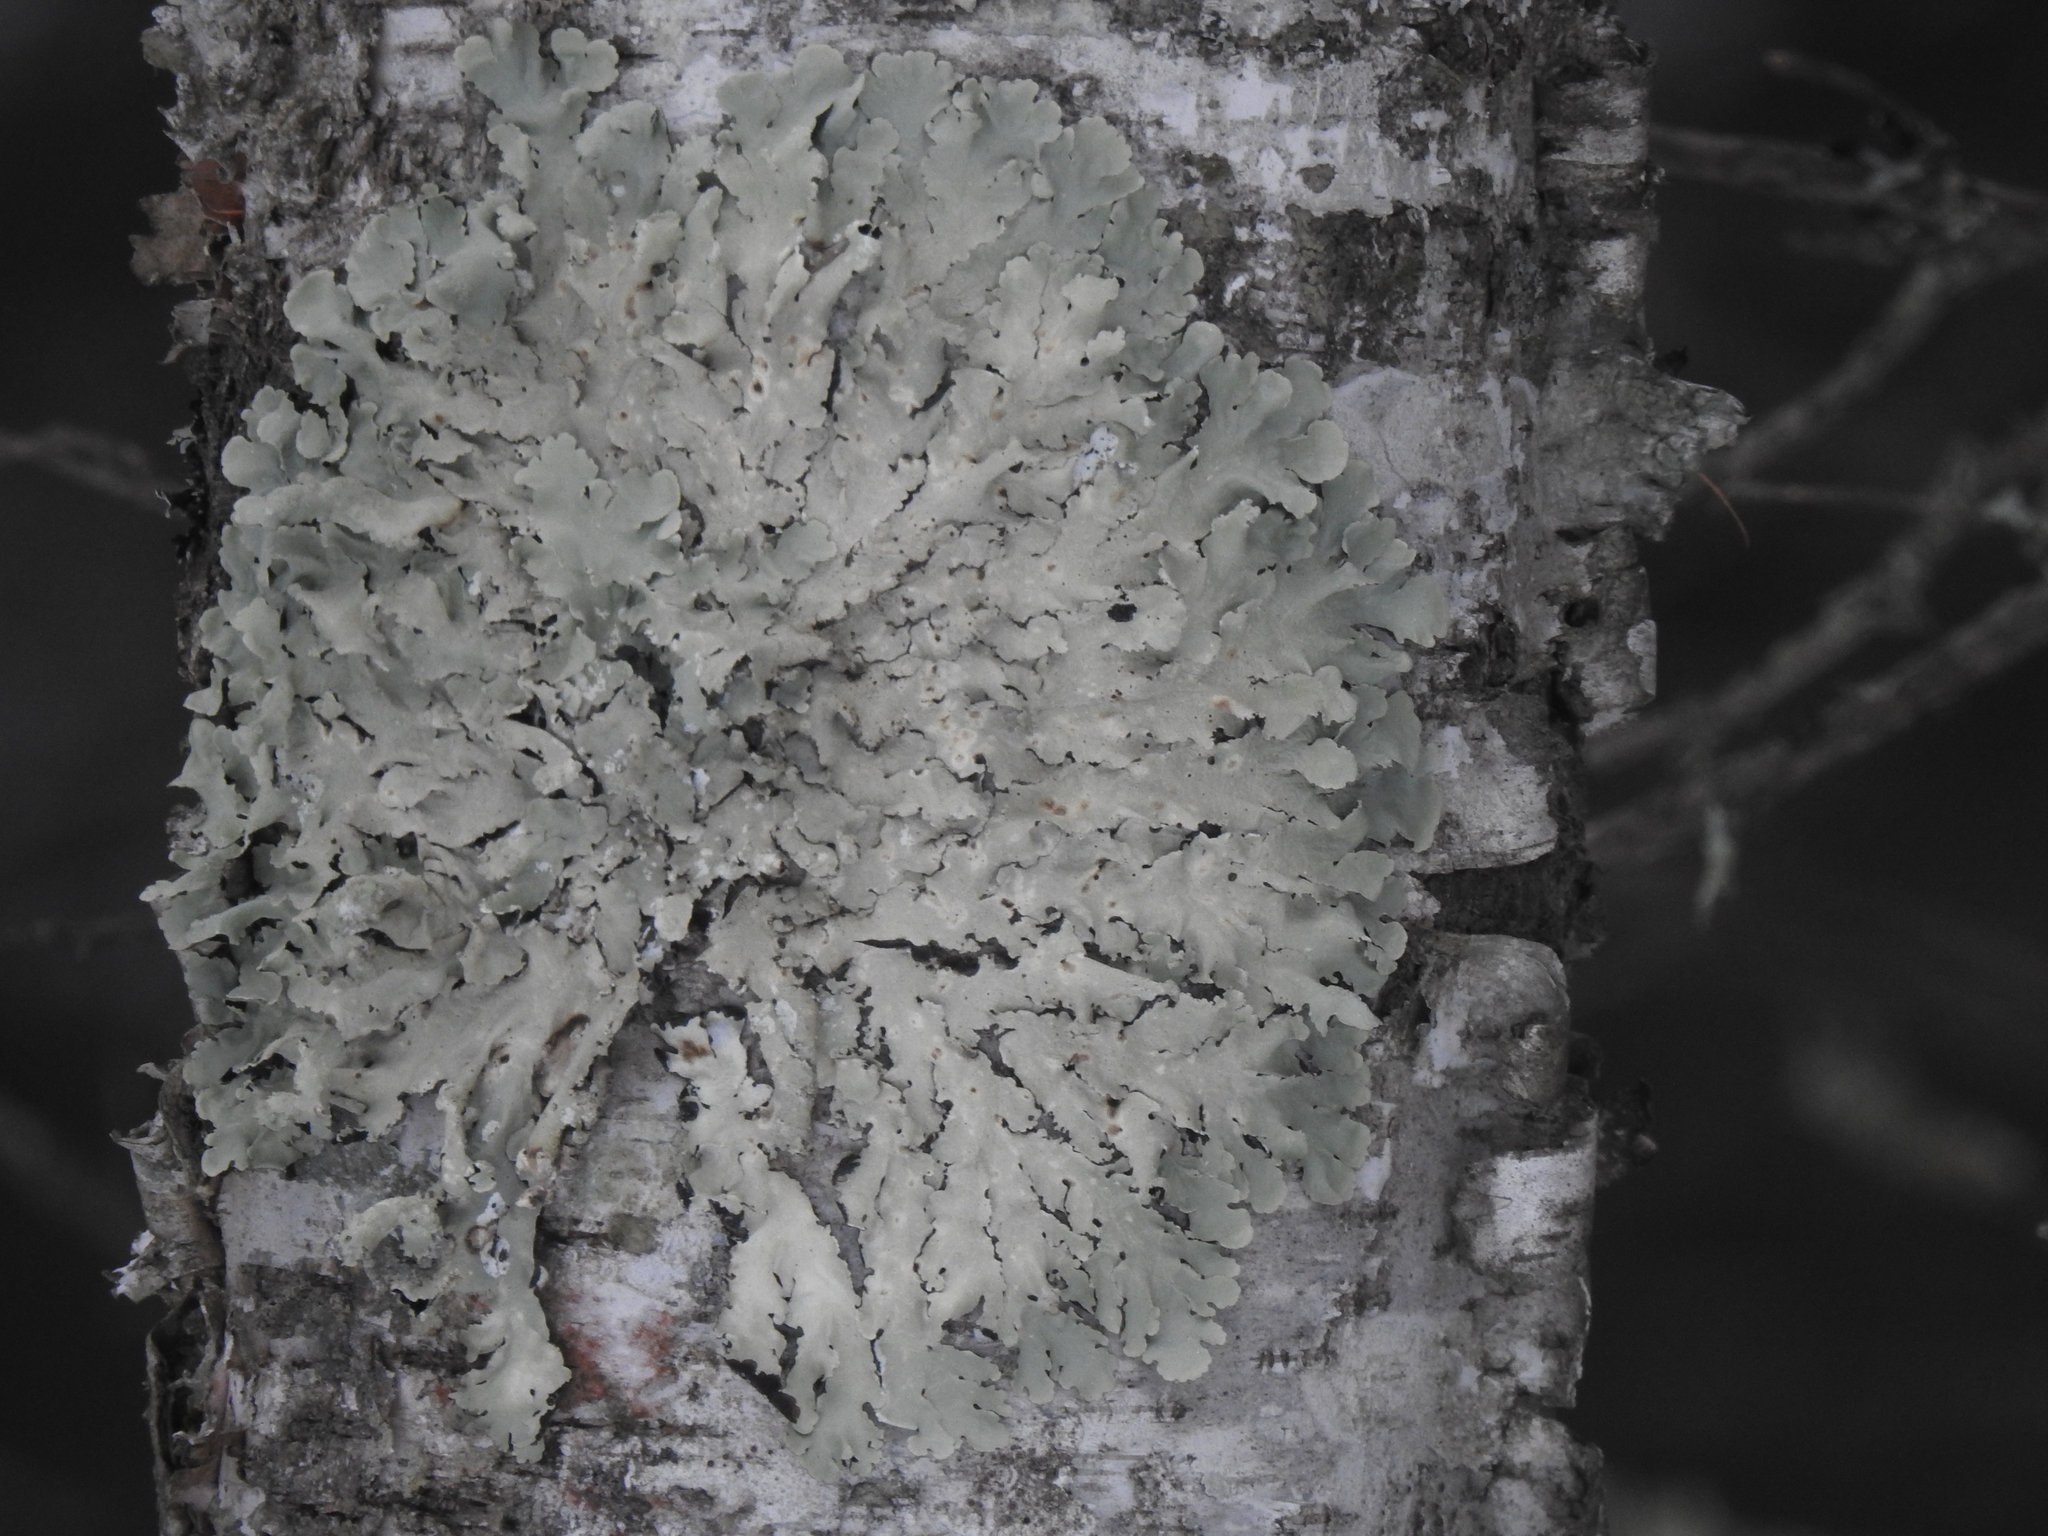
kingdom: Fungi
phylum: Ascomycota
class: Lecanoromycetes
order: Lecanorales
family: Parmeliaceae
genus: Flavoparmelia
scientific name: Flavoparmelia caperata
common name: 40-mile per hour lichen
